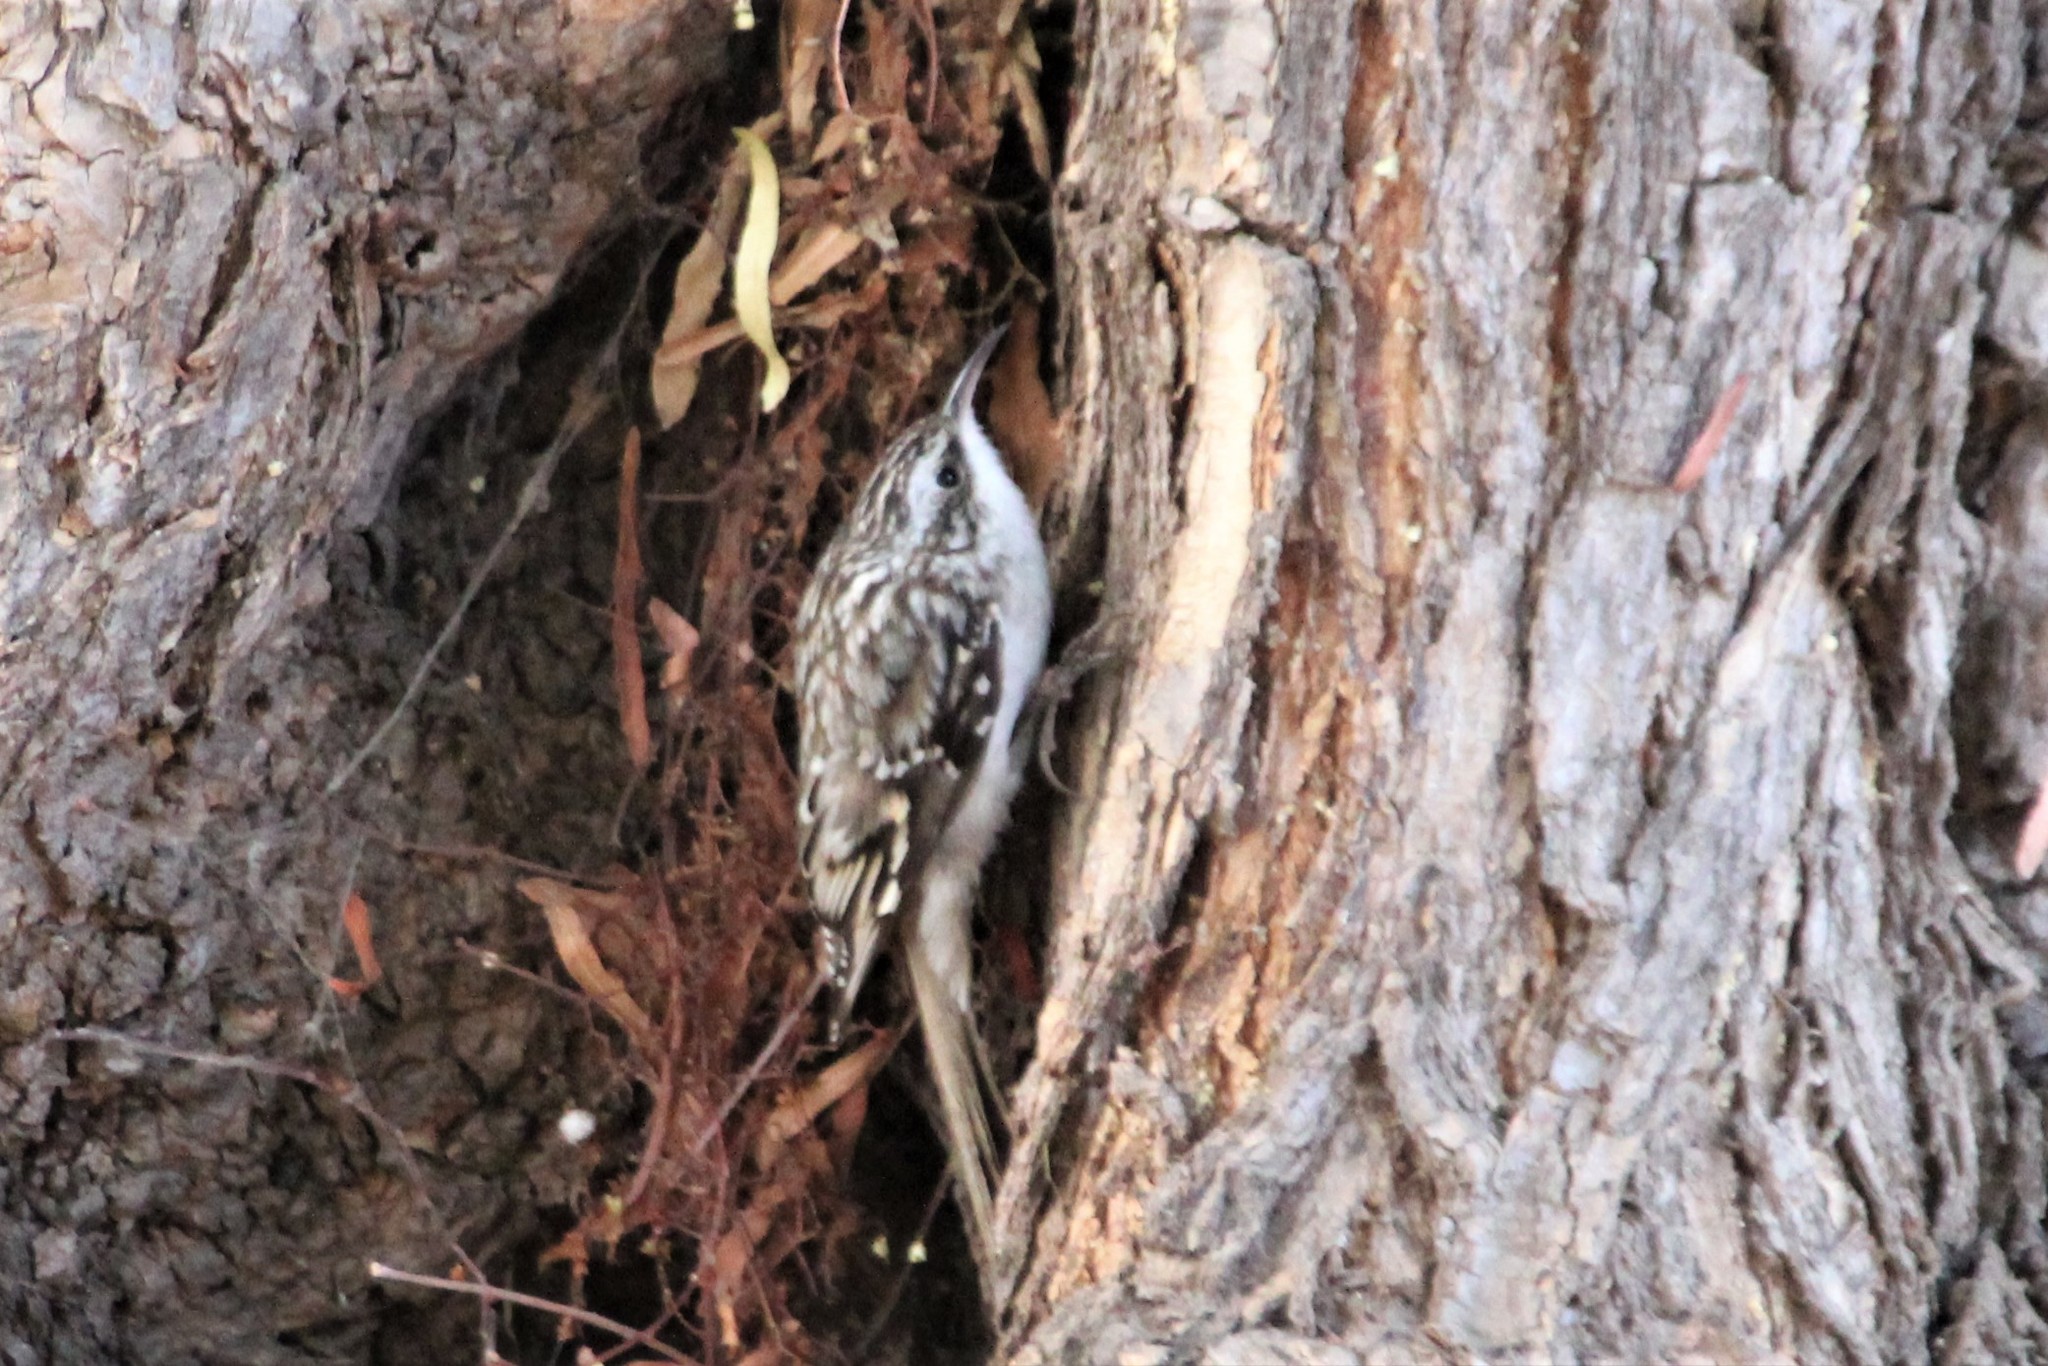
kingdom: Animalia
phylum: Chordata
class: Aves
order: Passeriformes
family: Certhiidae
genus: Certhia
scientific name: Certhia americana
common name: Brown creeper
